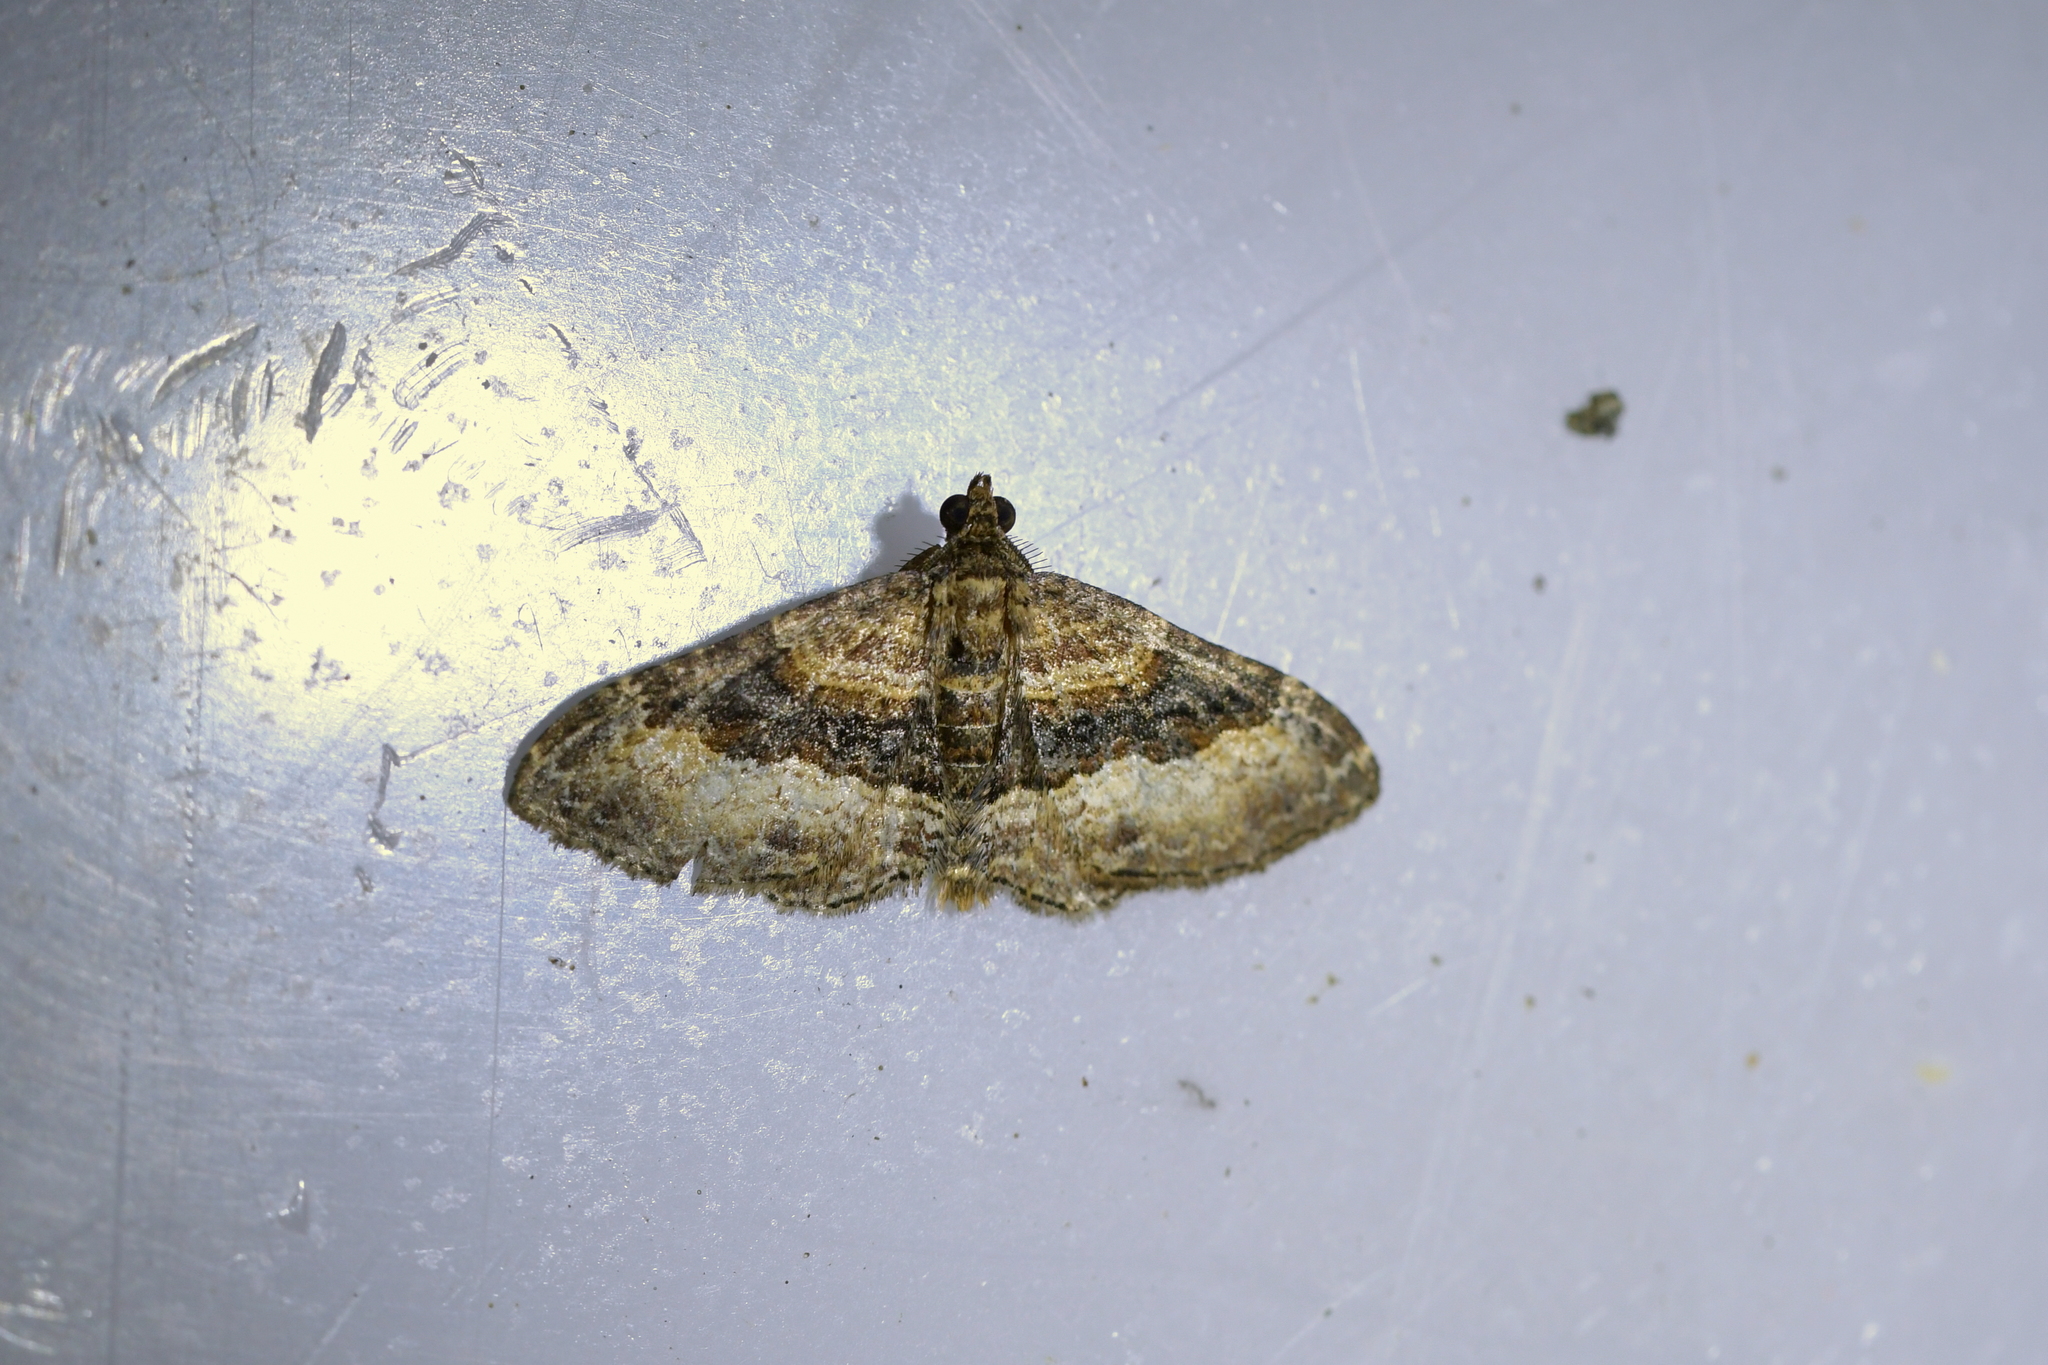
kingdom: Animalia
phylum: Arthropoda
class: Insecta
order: Lepidoptera
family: Geometridae
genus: Epyaxa
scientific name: Epyaxa lucidata
